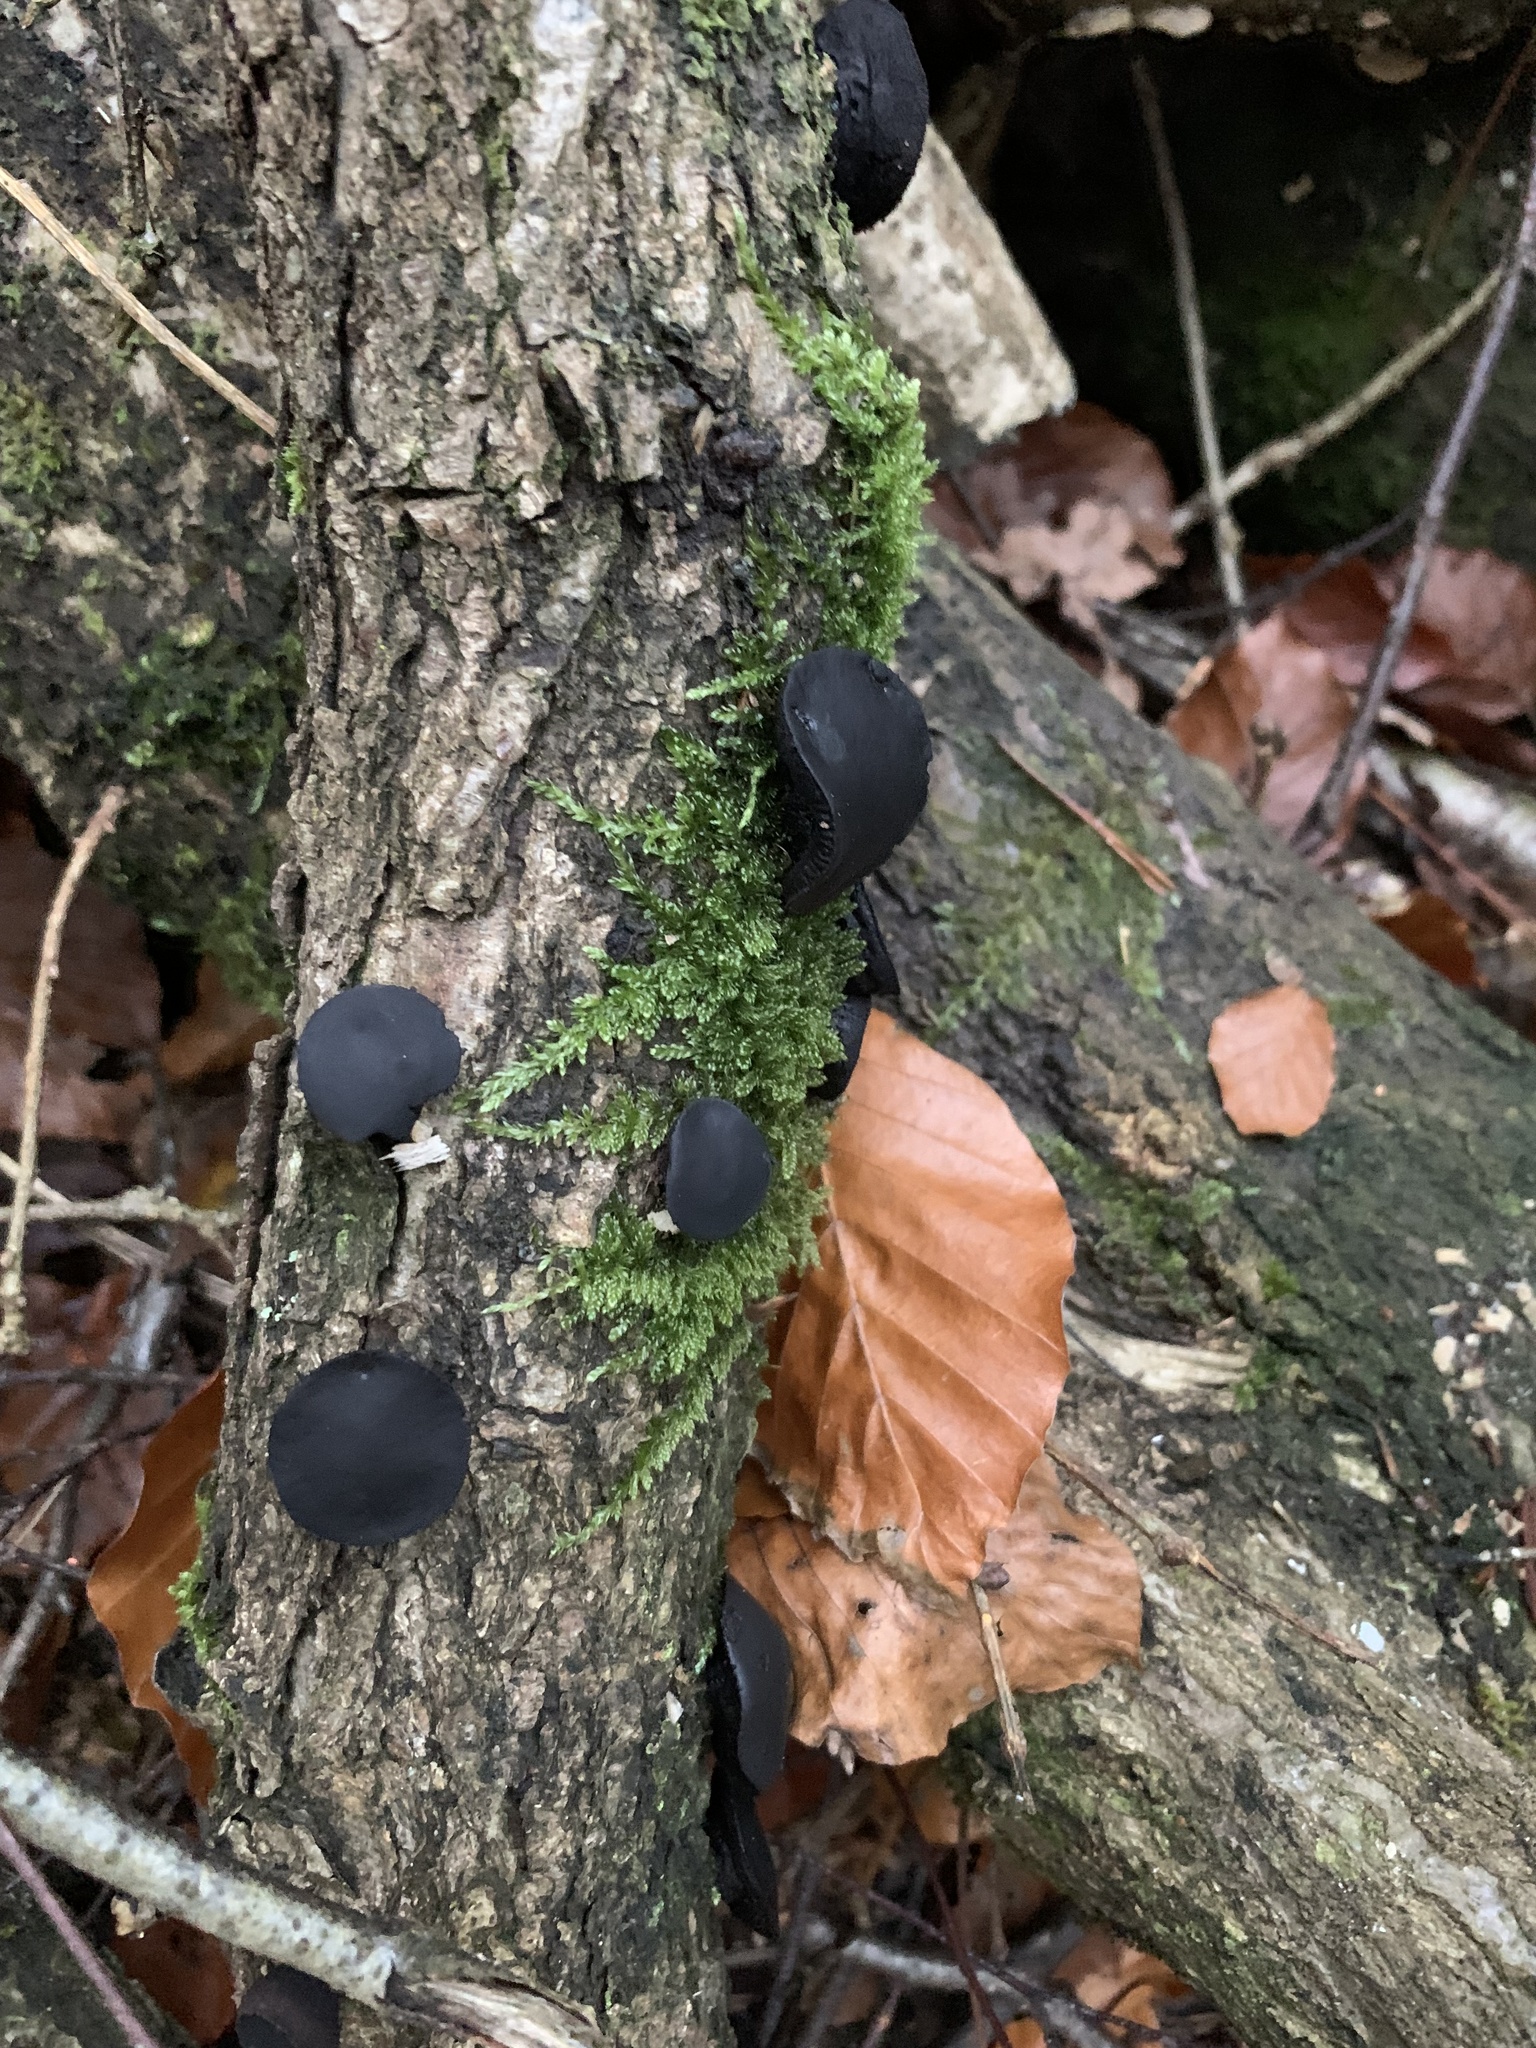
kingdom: Fungi
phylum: Ascomycota
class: Leotiomycetes
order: Phacidiales
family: Phacidiaceae
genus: Bulgaria
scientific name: Bulgaria inquinans
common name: Black bulgar
